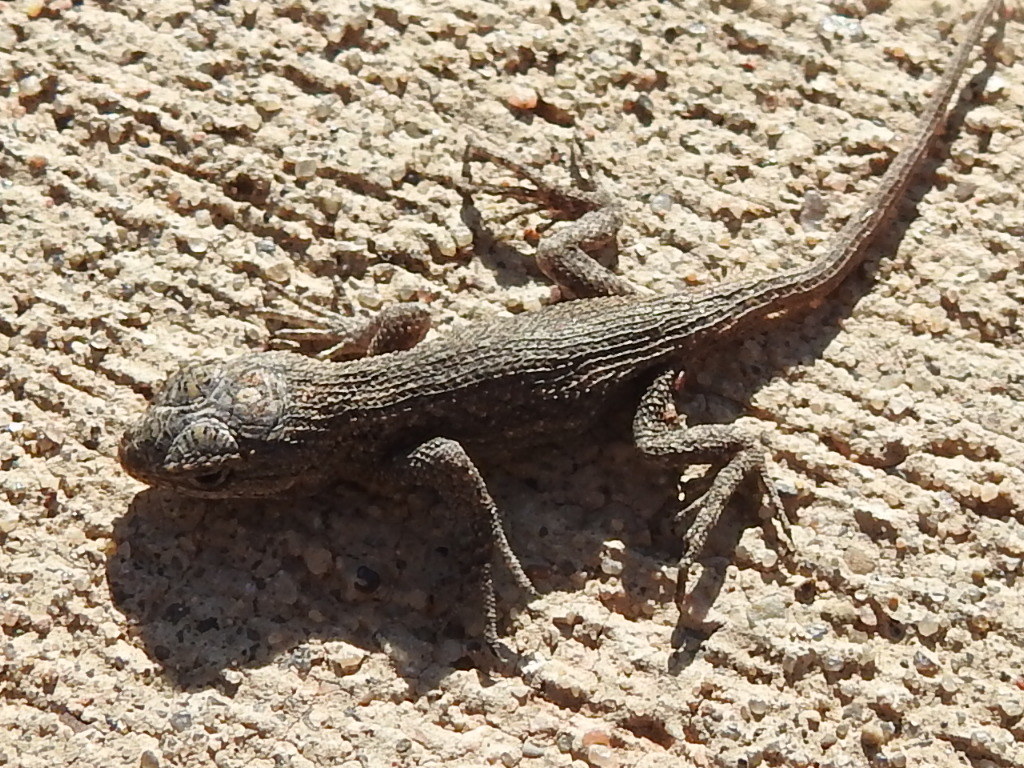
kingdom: Animalia
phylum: Chordata
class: Squamata
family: Phrynosomatidae
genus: Sceloporus
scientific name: Sceloporus consobrinus
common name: Southern prairie lizard
